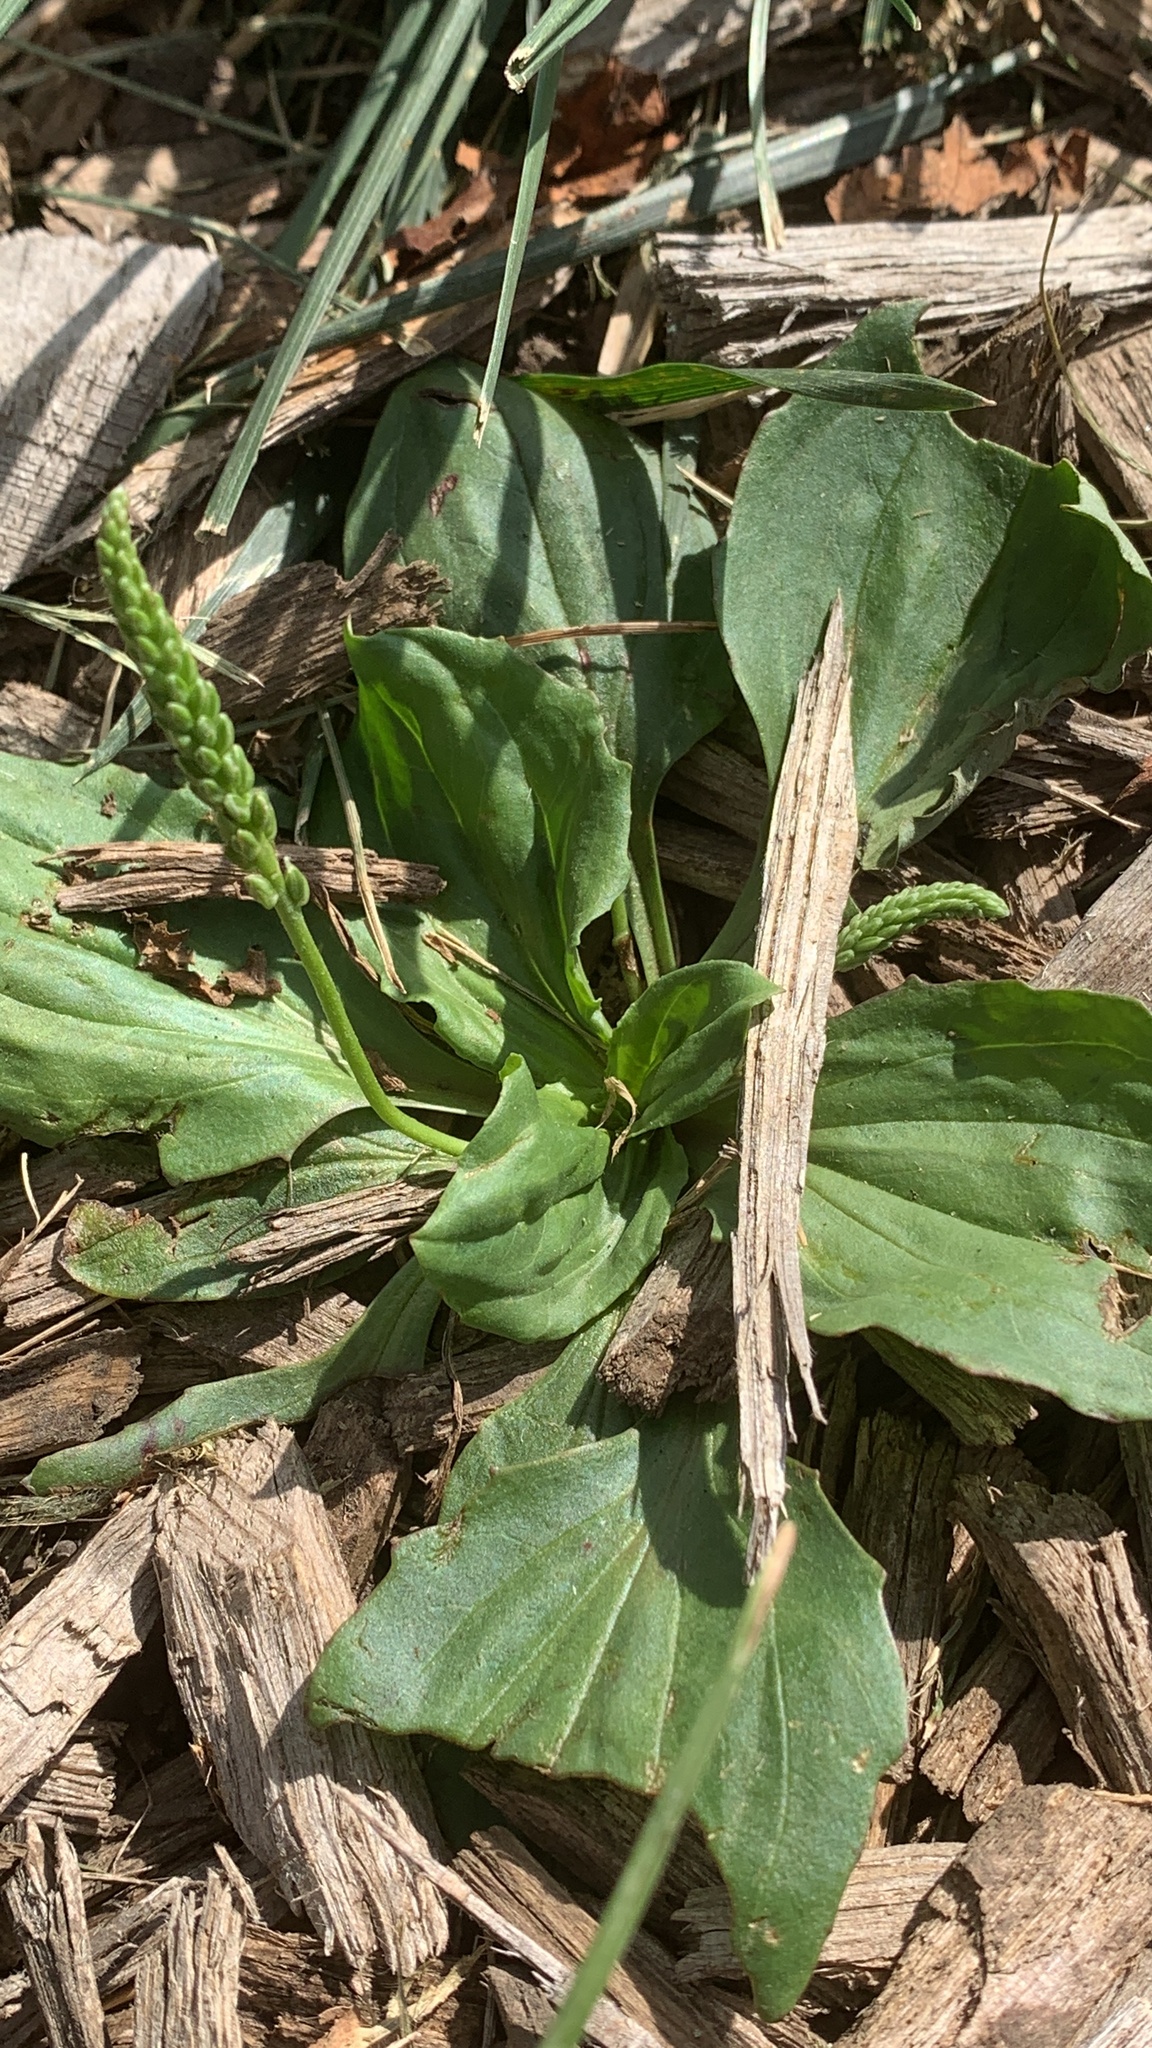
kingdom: Plantae
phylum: Tracheophyta
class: Magnoliopsida
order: Lamiales
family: Plantaginaceae
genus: Plantago
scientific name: Plantago rugelii
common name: American plantain
